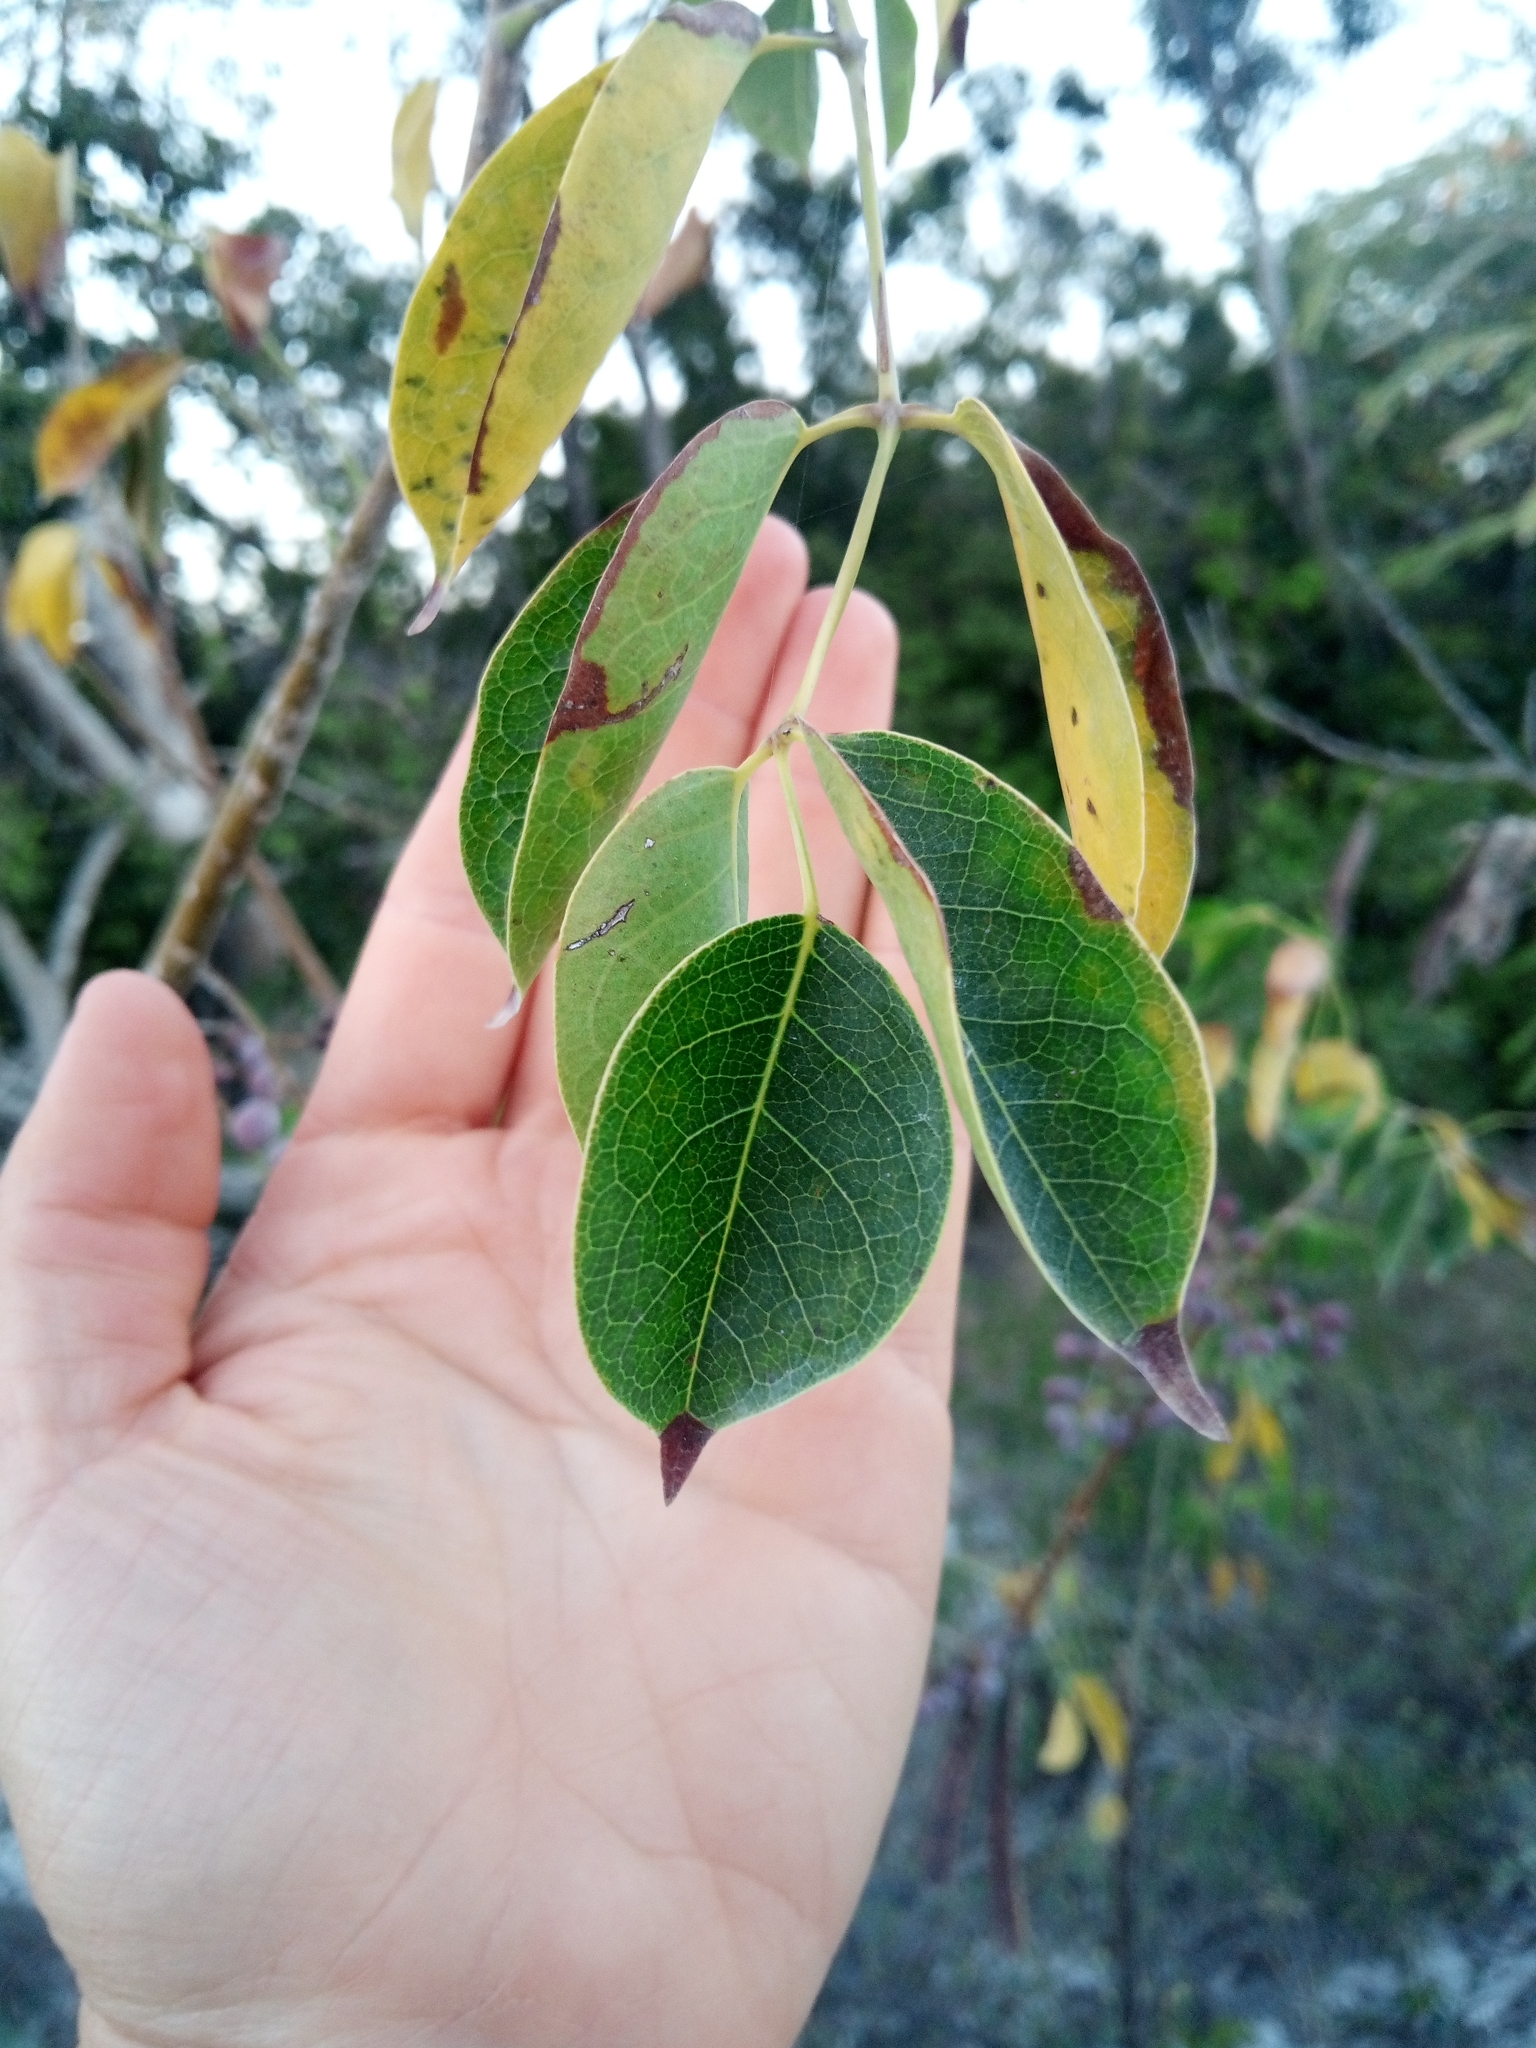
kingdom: Plantae
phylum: Tracheophyta
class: Magnoliopsida
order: Sapindales
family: Burseraceae
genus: Bursera
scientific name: Bursera simaruba
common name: Turpentine tree
